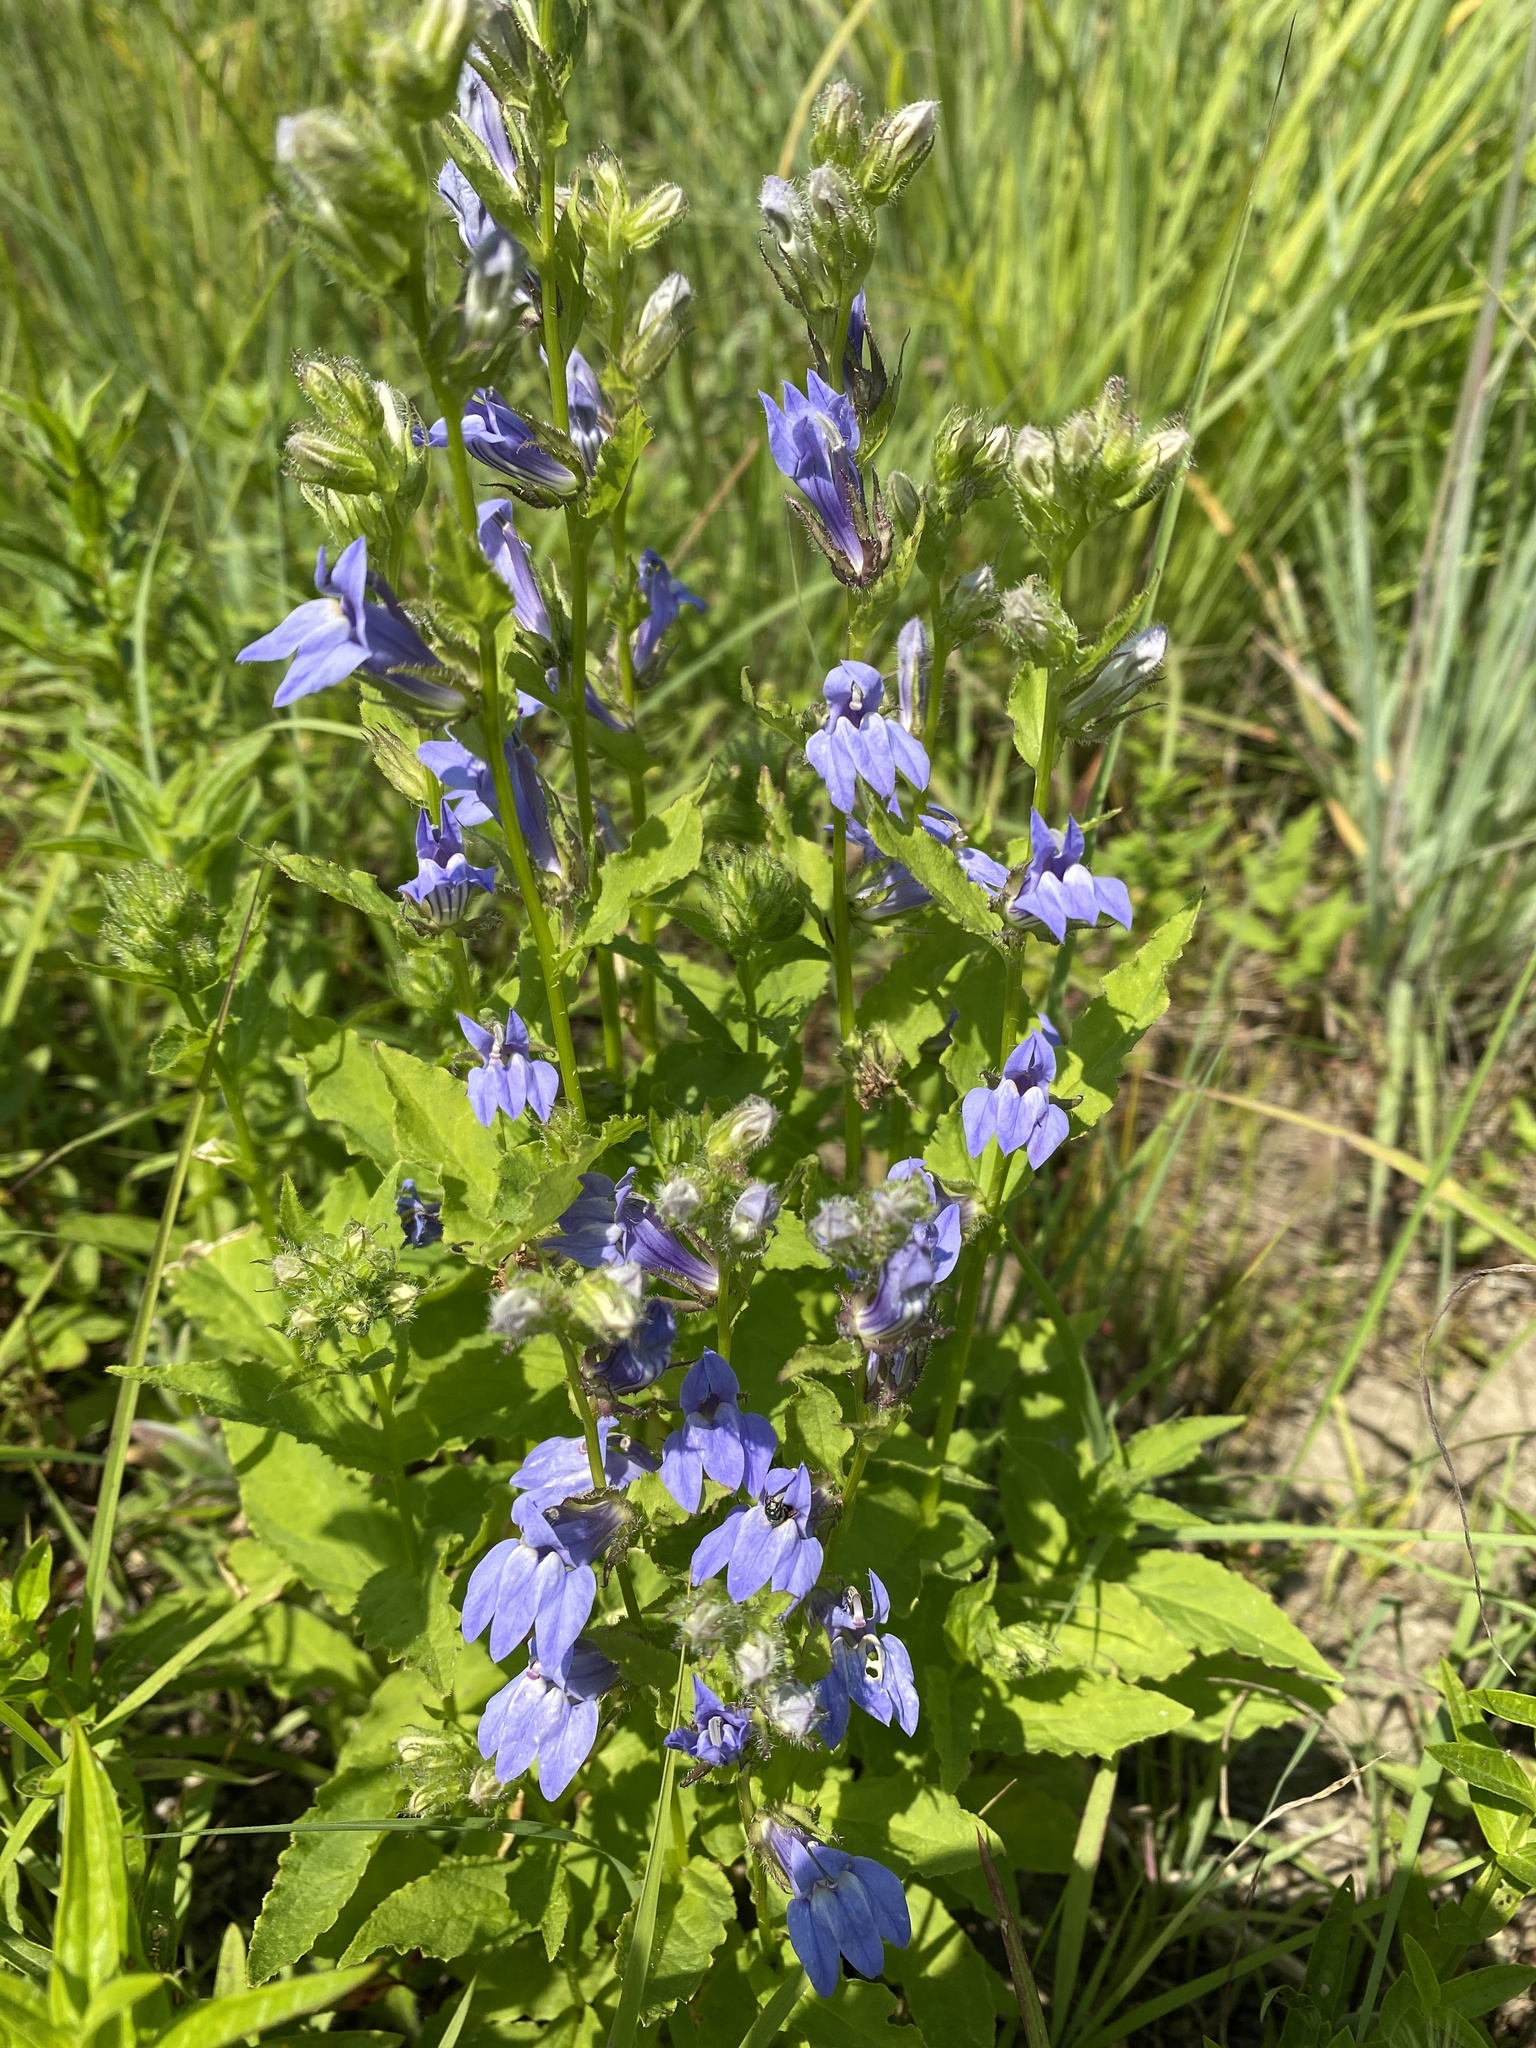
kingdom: Plantae
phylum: Tracheophyta
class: Magnoliopsida
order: Asterales
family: Campanulaceae
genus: Lobelia
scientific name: Lobelia siphilitica
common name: Great lobelia
